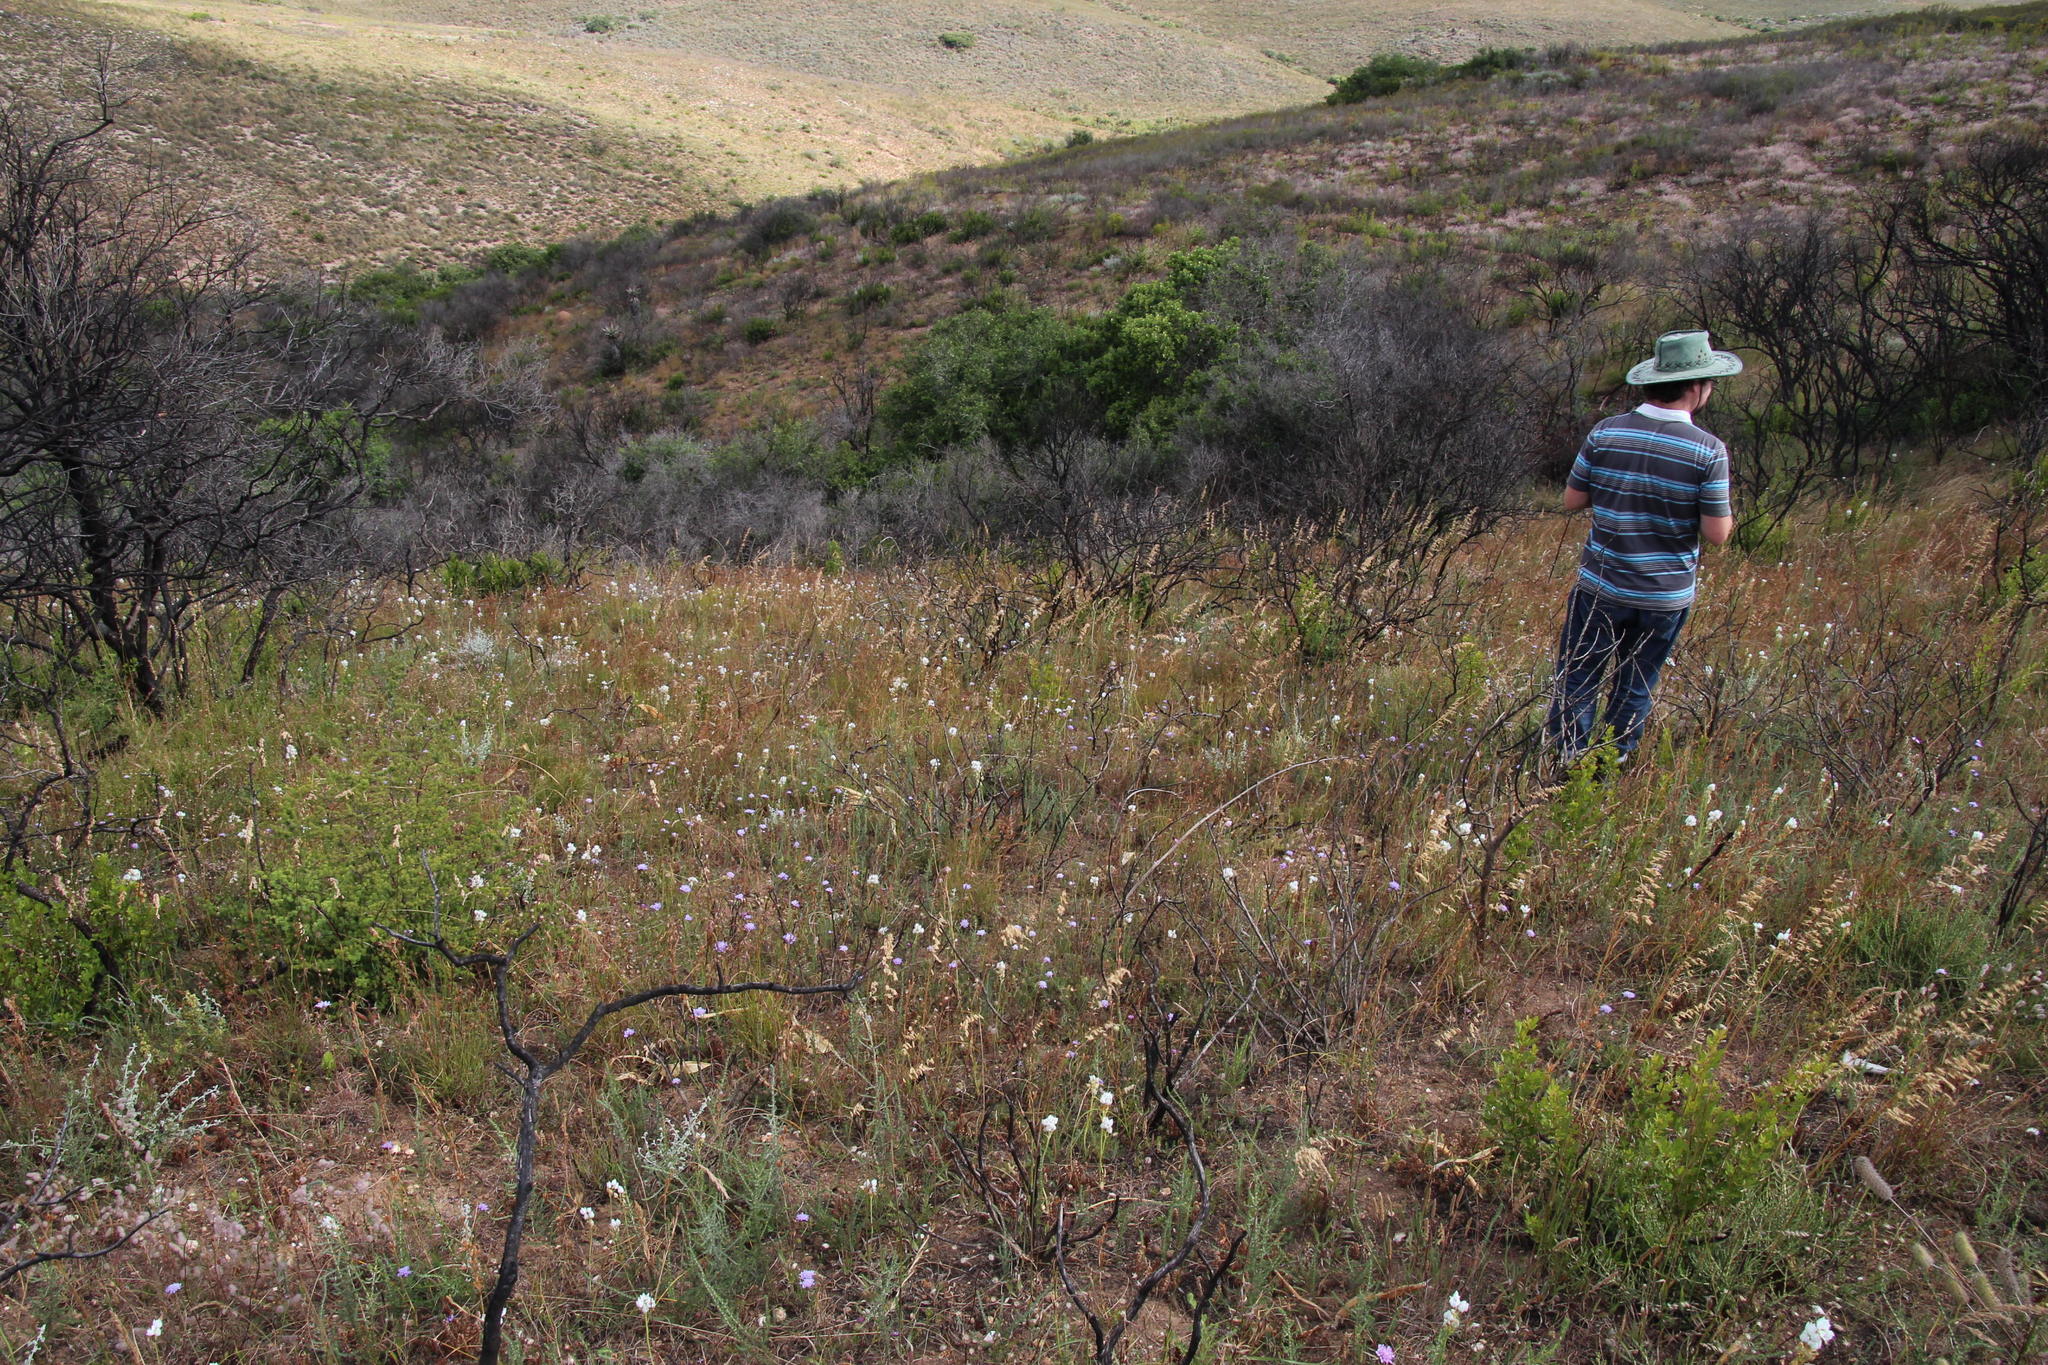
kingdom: Plantae
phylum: Tracheophyta
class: Liliopsida
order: Asparagales
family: Asparagaceae
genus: Ornithogalum
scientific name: Ornithogalum thyrsoides
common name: Chincherinchee
